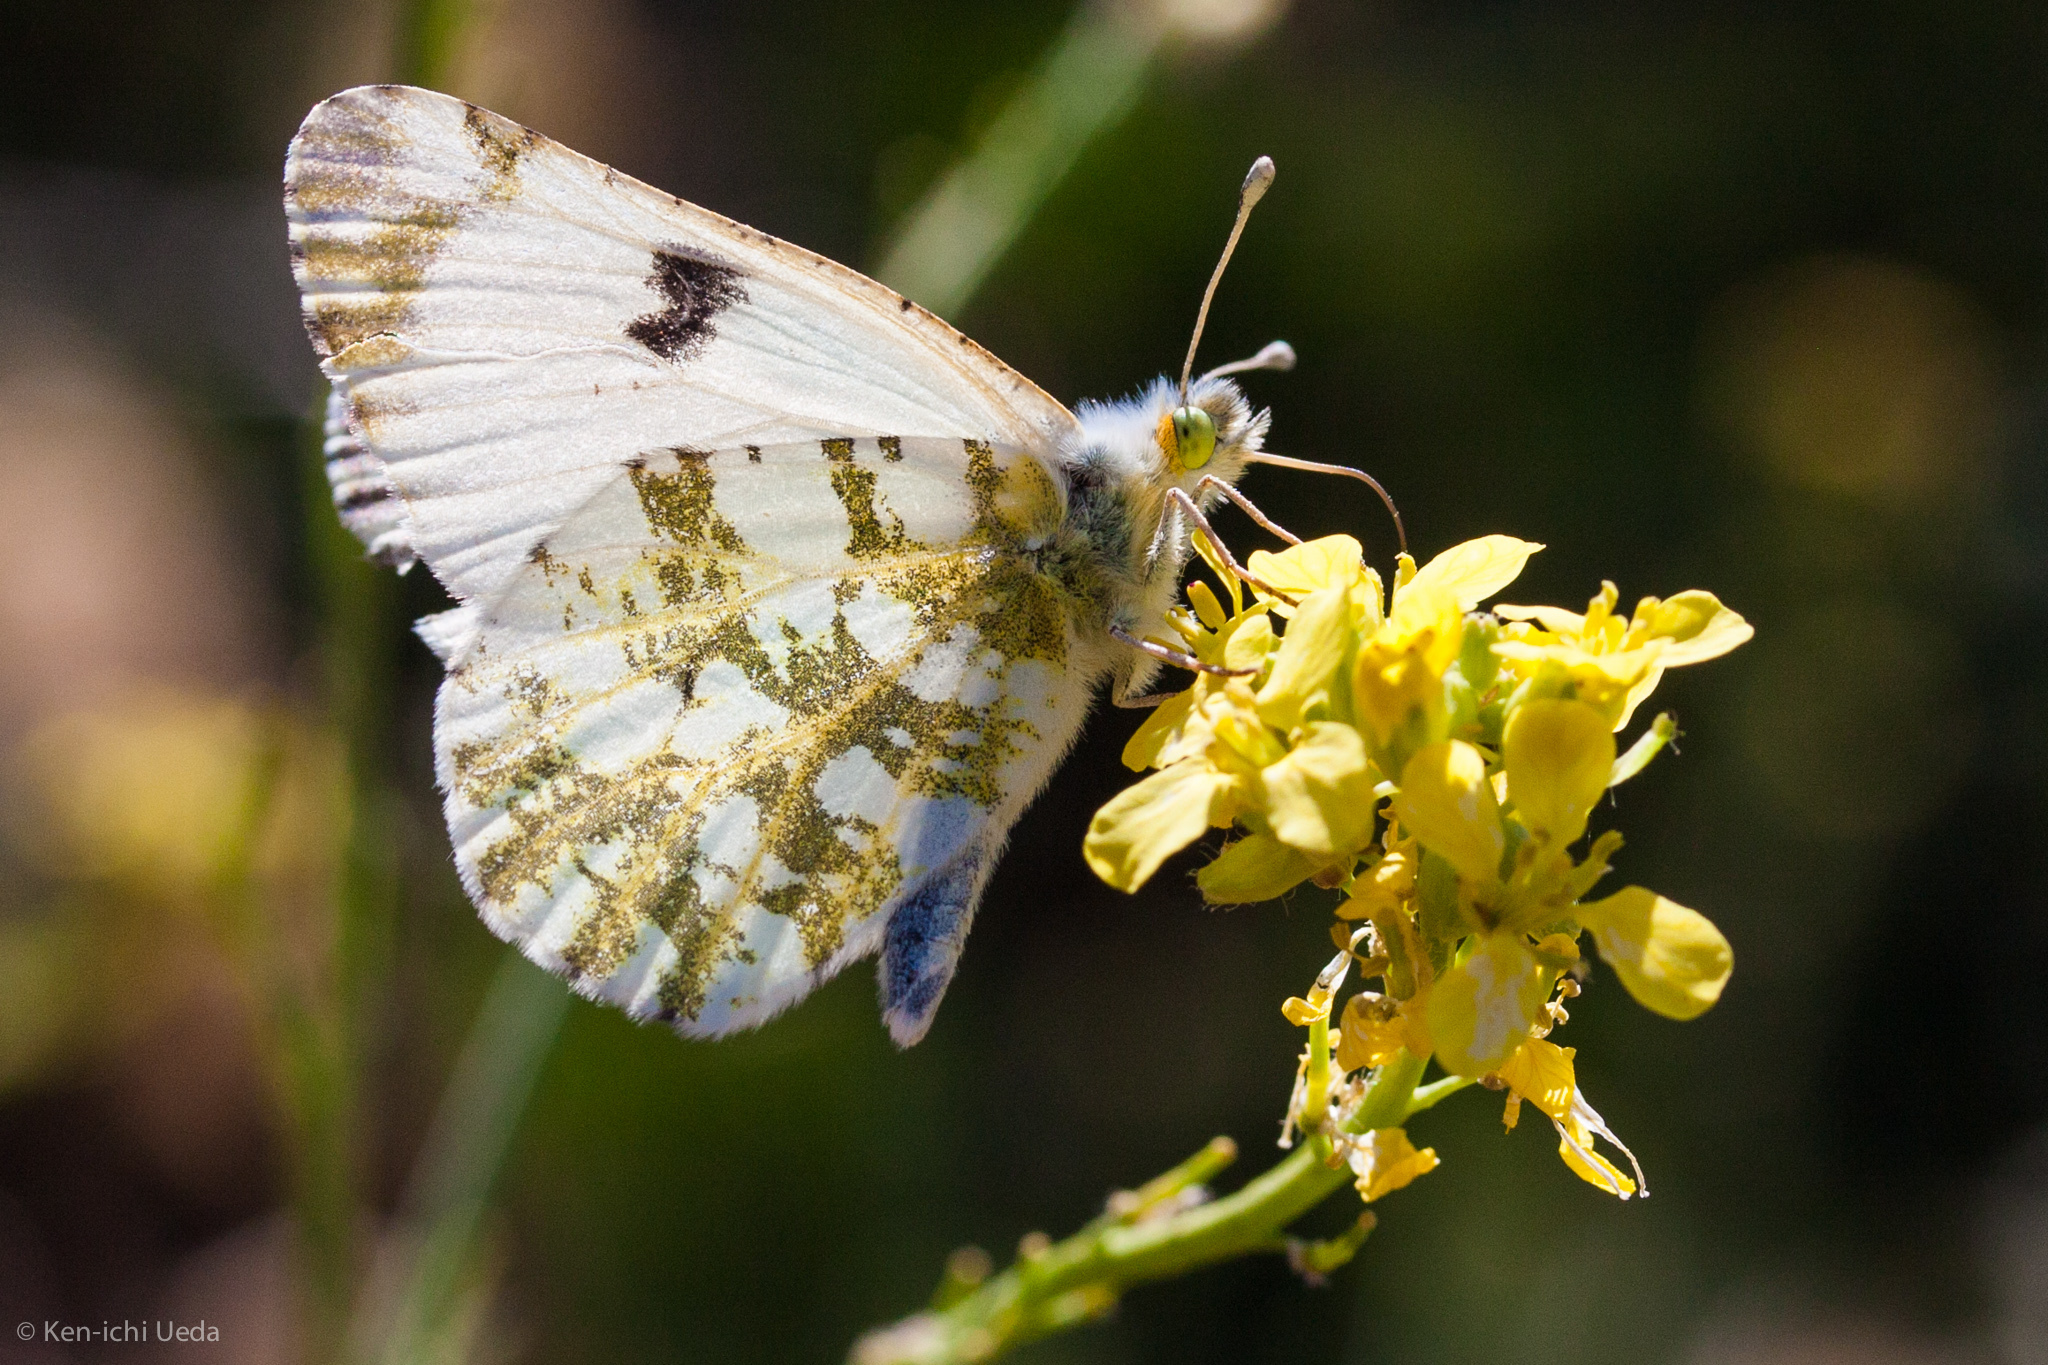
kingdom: Animalia
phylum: Arthropoda
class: Insecta
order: Lepidoptera
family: Pieridae
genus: Euchloe
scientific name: Euchloe ausonides
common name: Creamy marblewing
